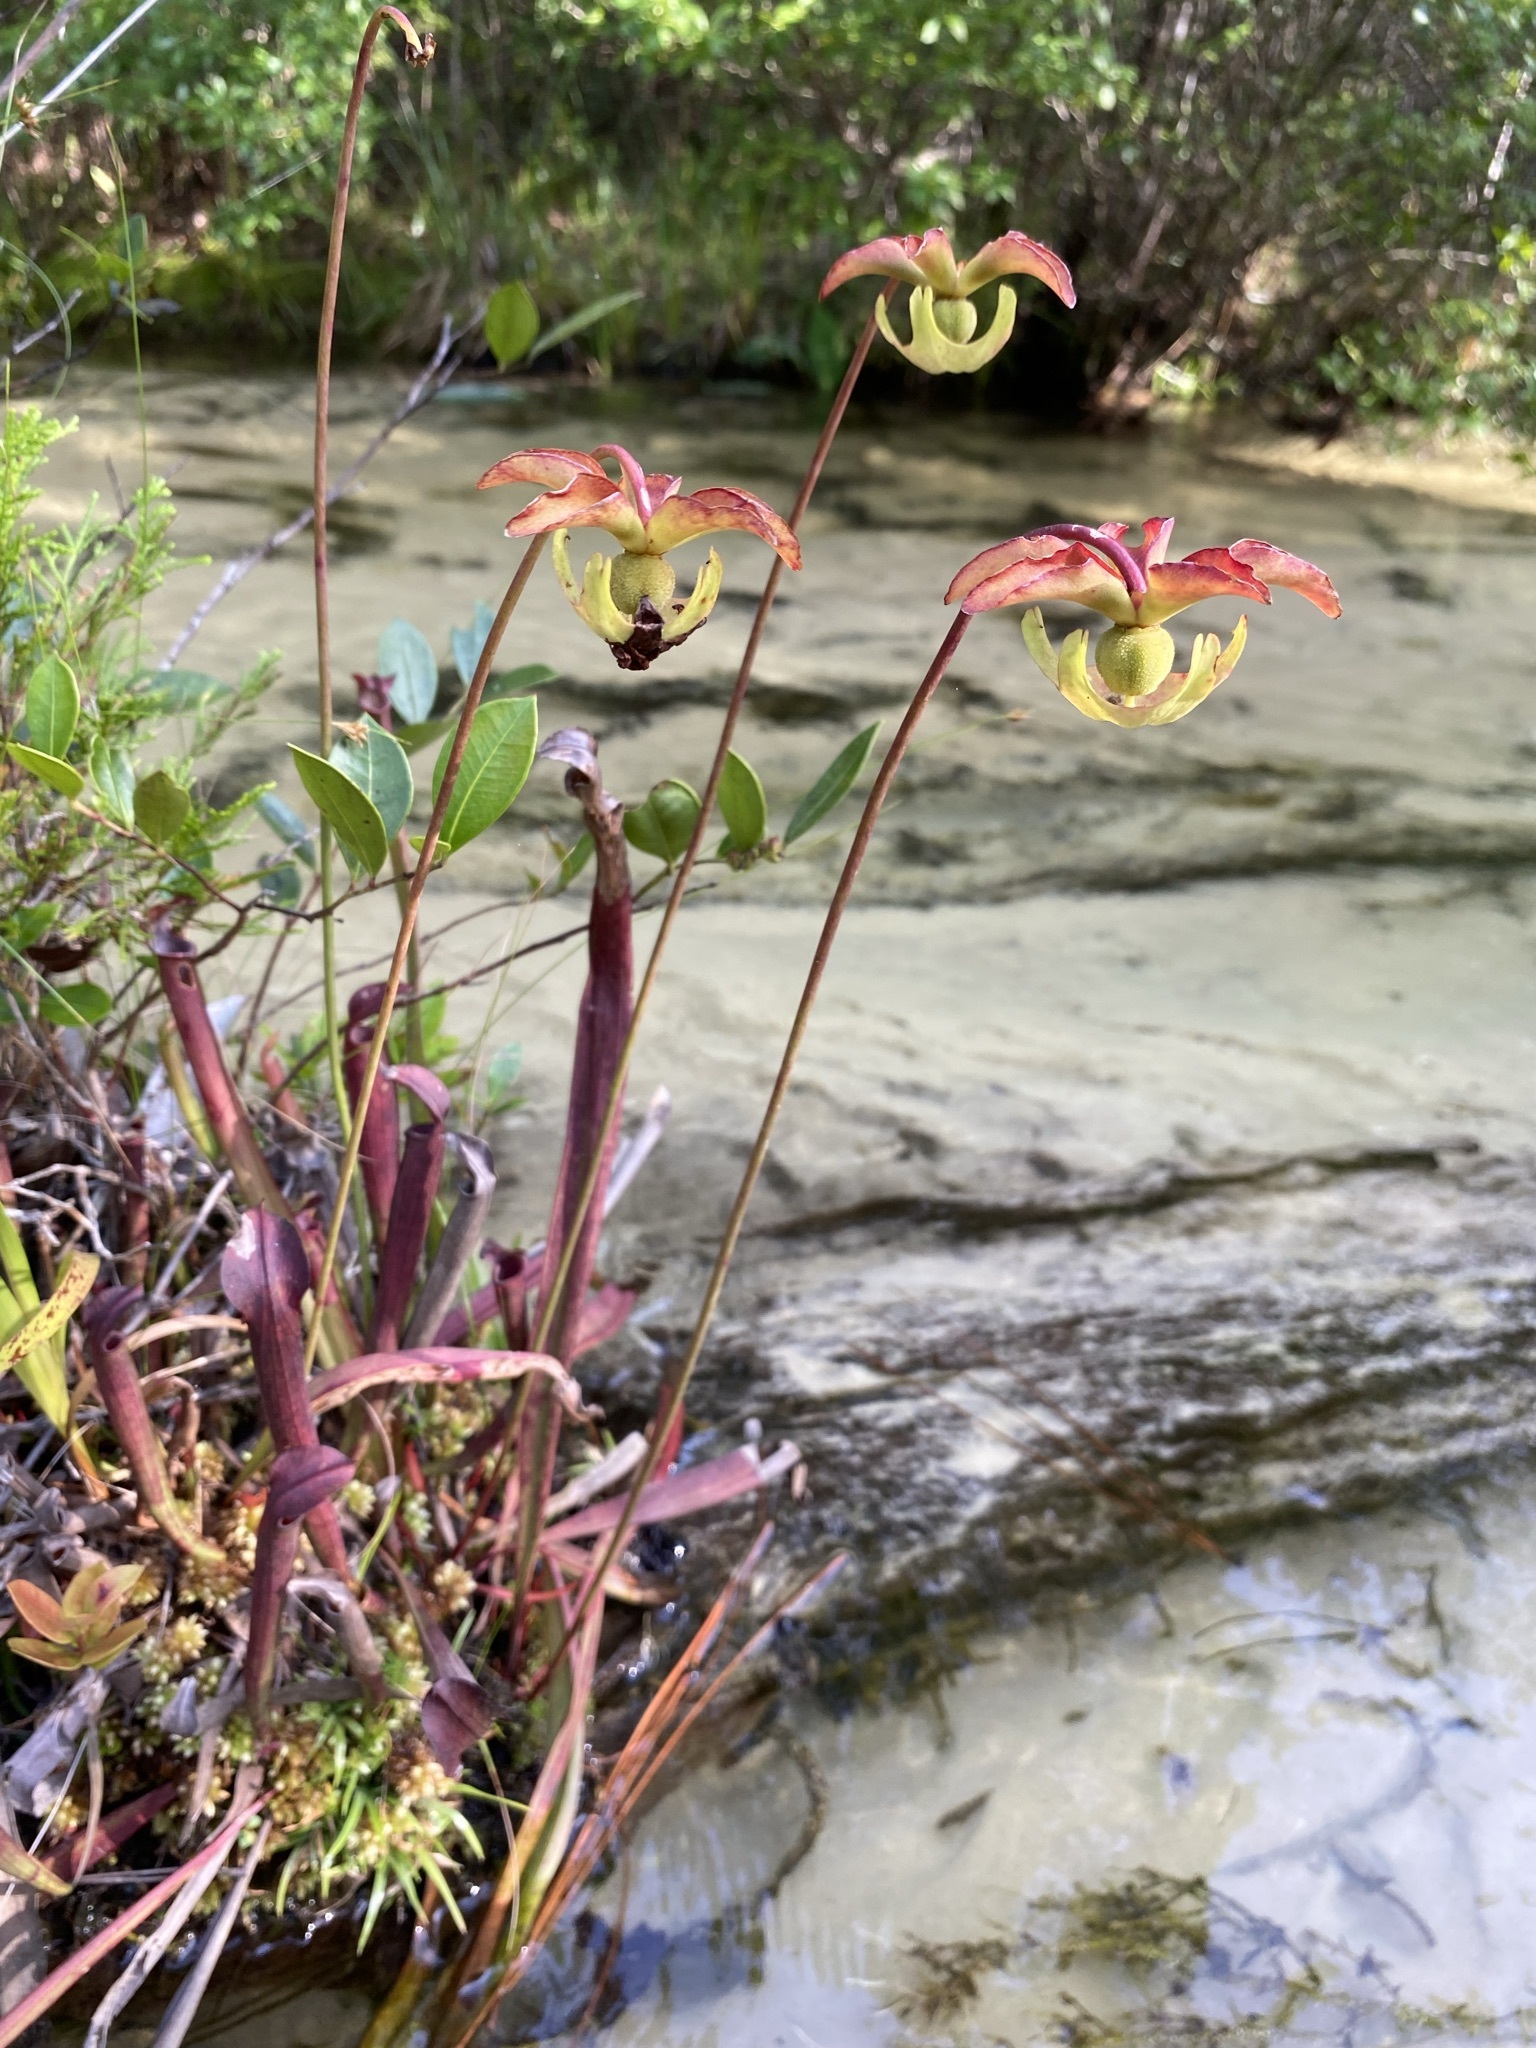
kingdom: Plantae
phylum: Tracheophyta
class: Magnoliopsida
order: Ericales
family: Sarraceniaceae
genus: Sarracenia
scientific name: Sarracenia rubra
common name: Sweet pitcherplant
